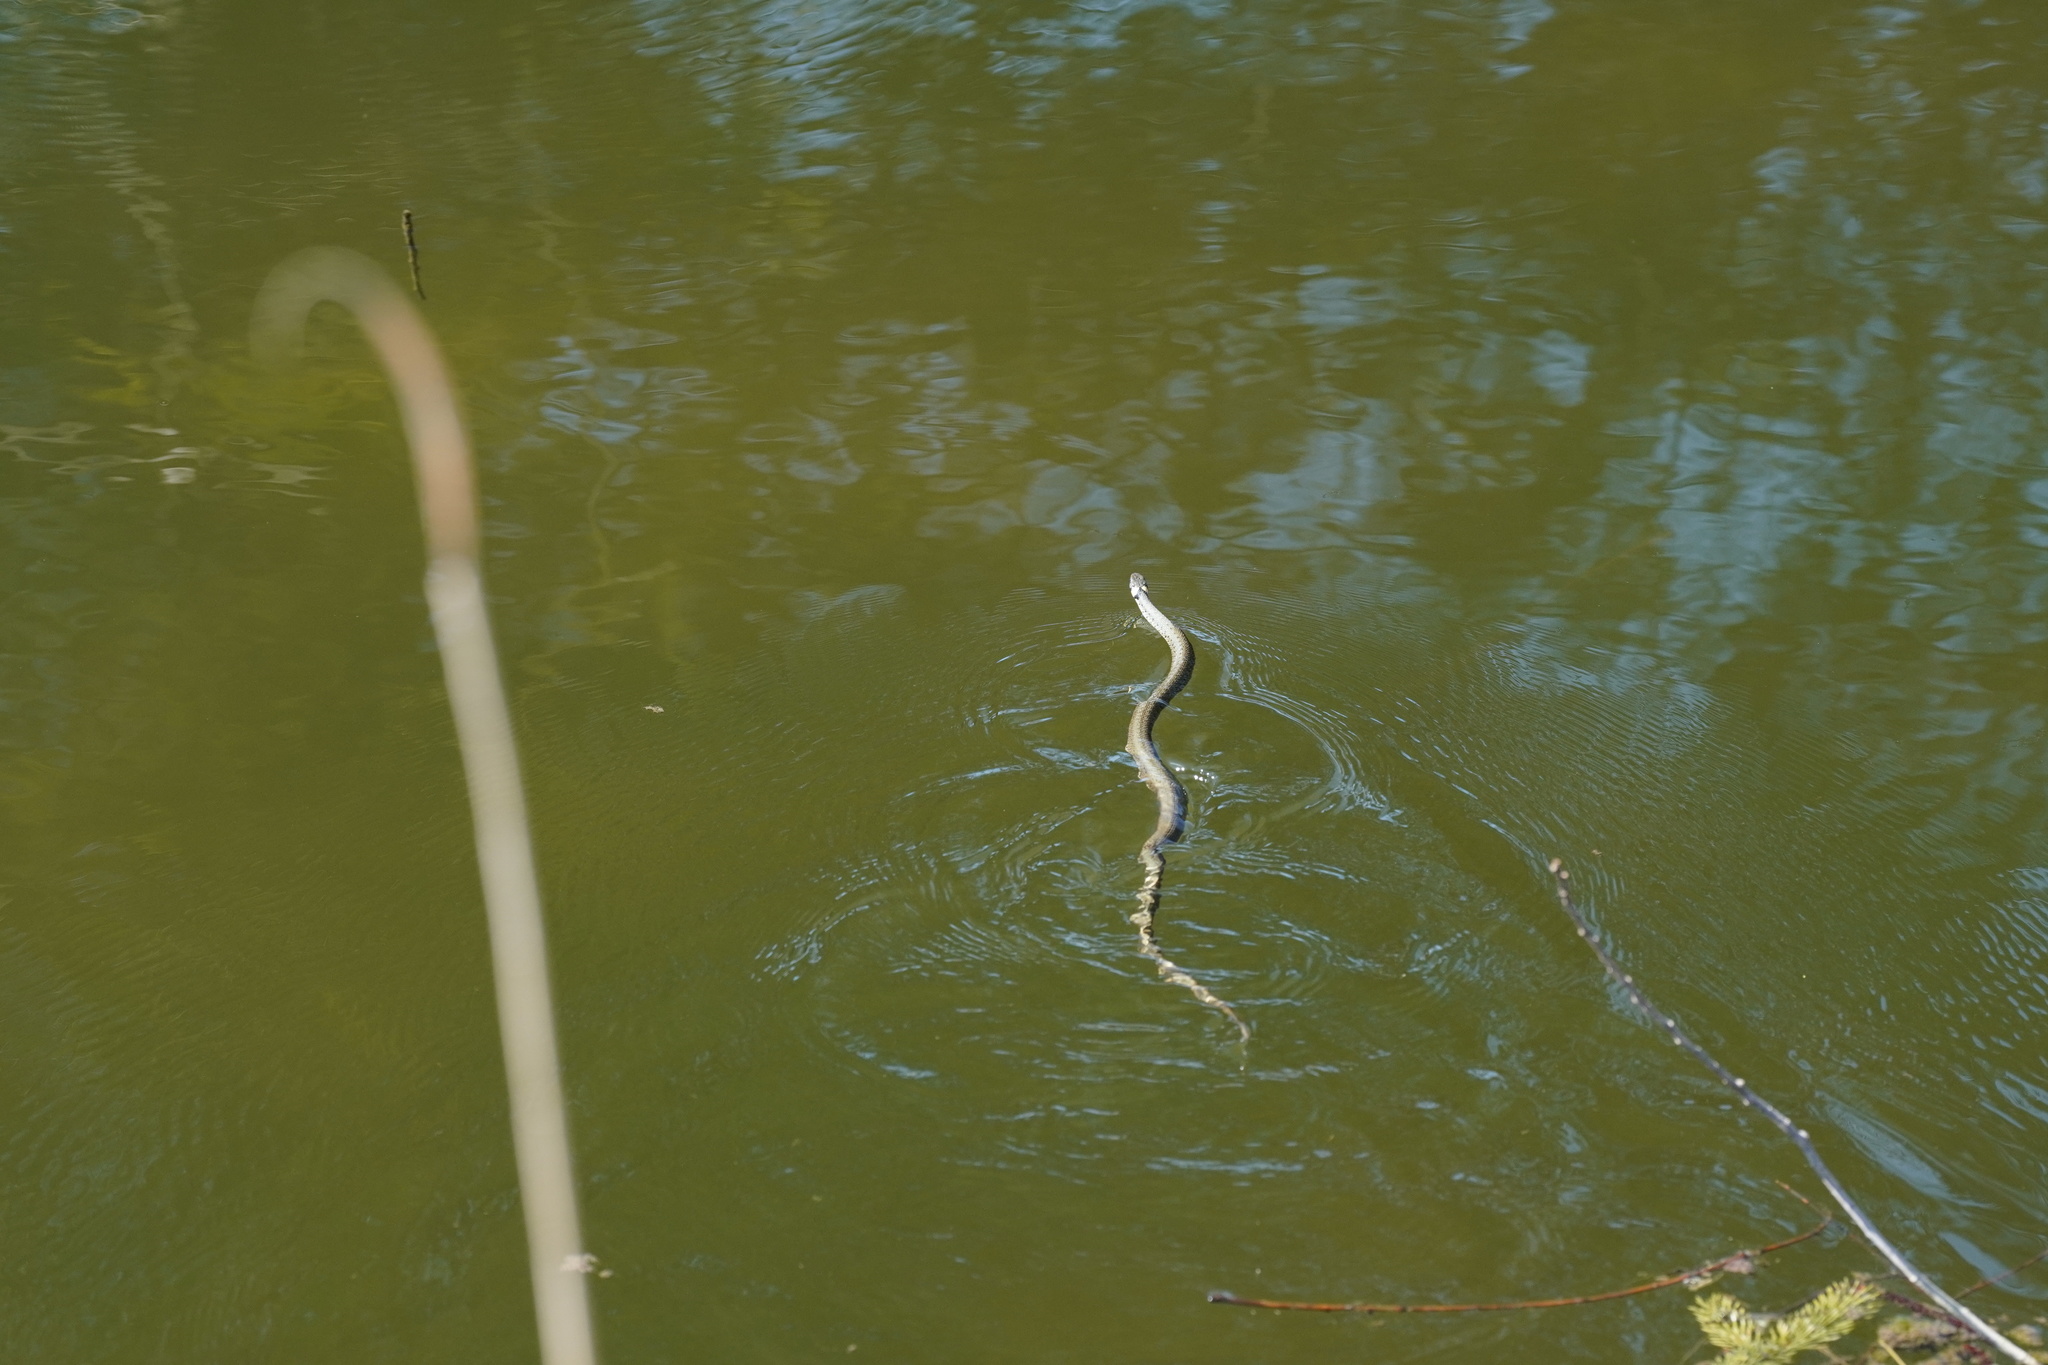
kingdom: Animalia
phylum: Chordata
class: Squamata
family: Colubridae
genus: Natrix
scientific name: Natrix natrix
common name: Grass snake
